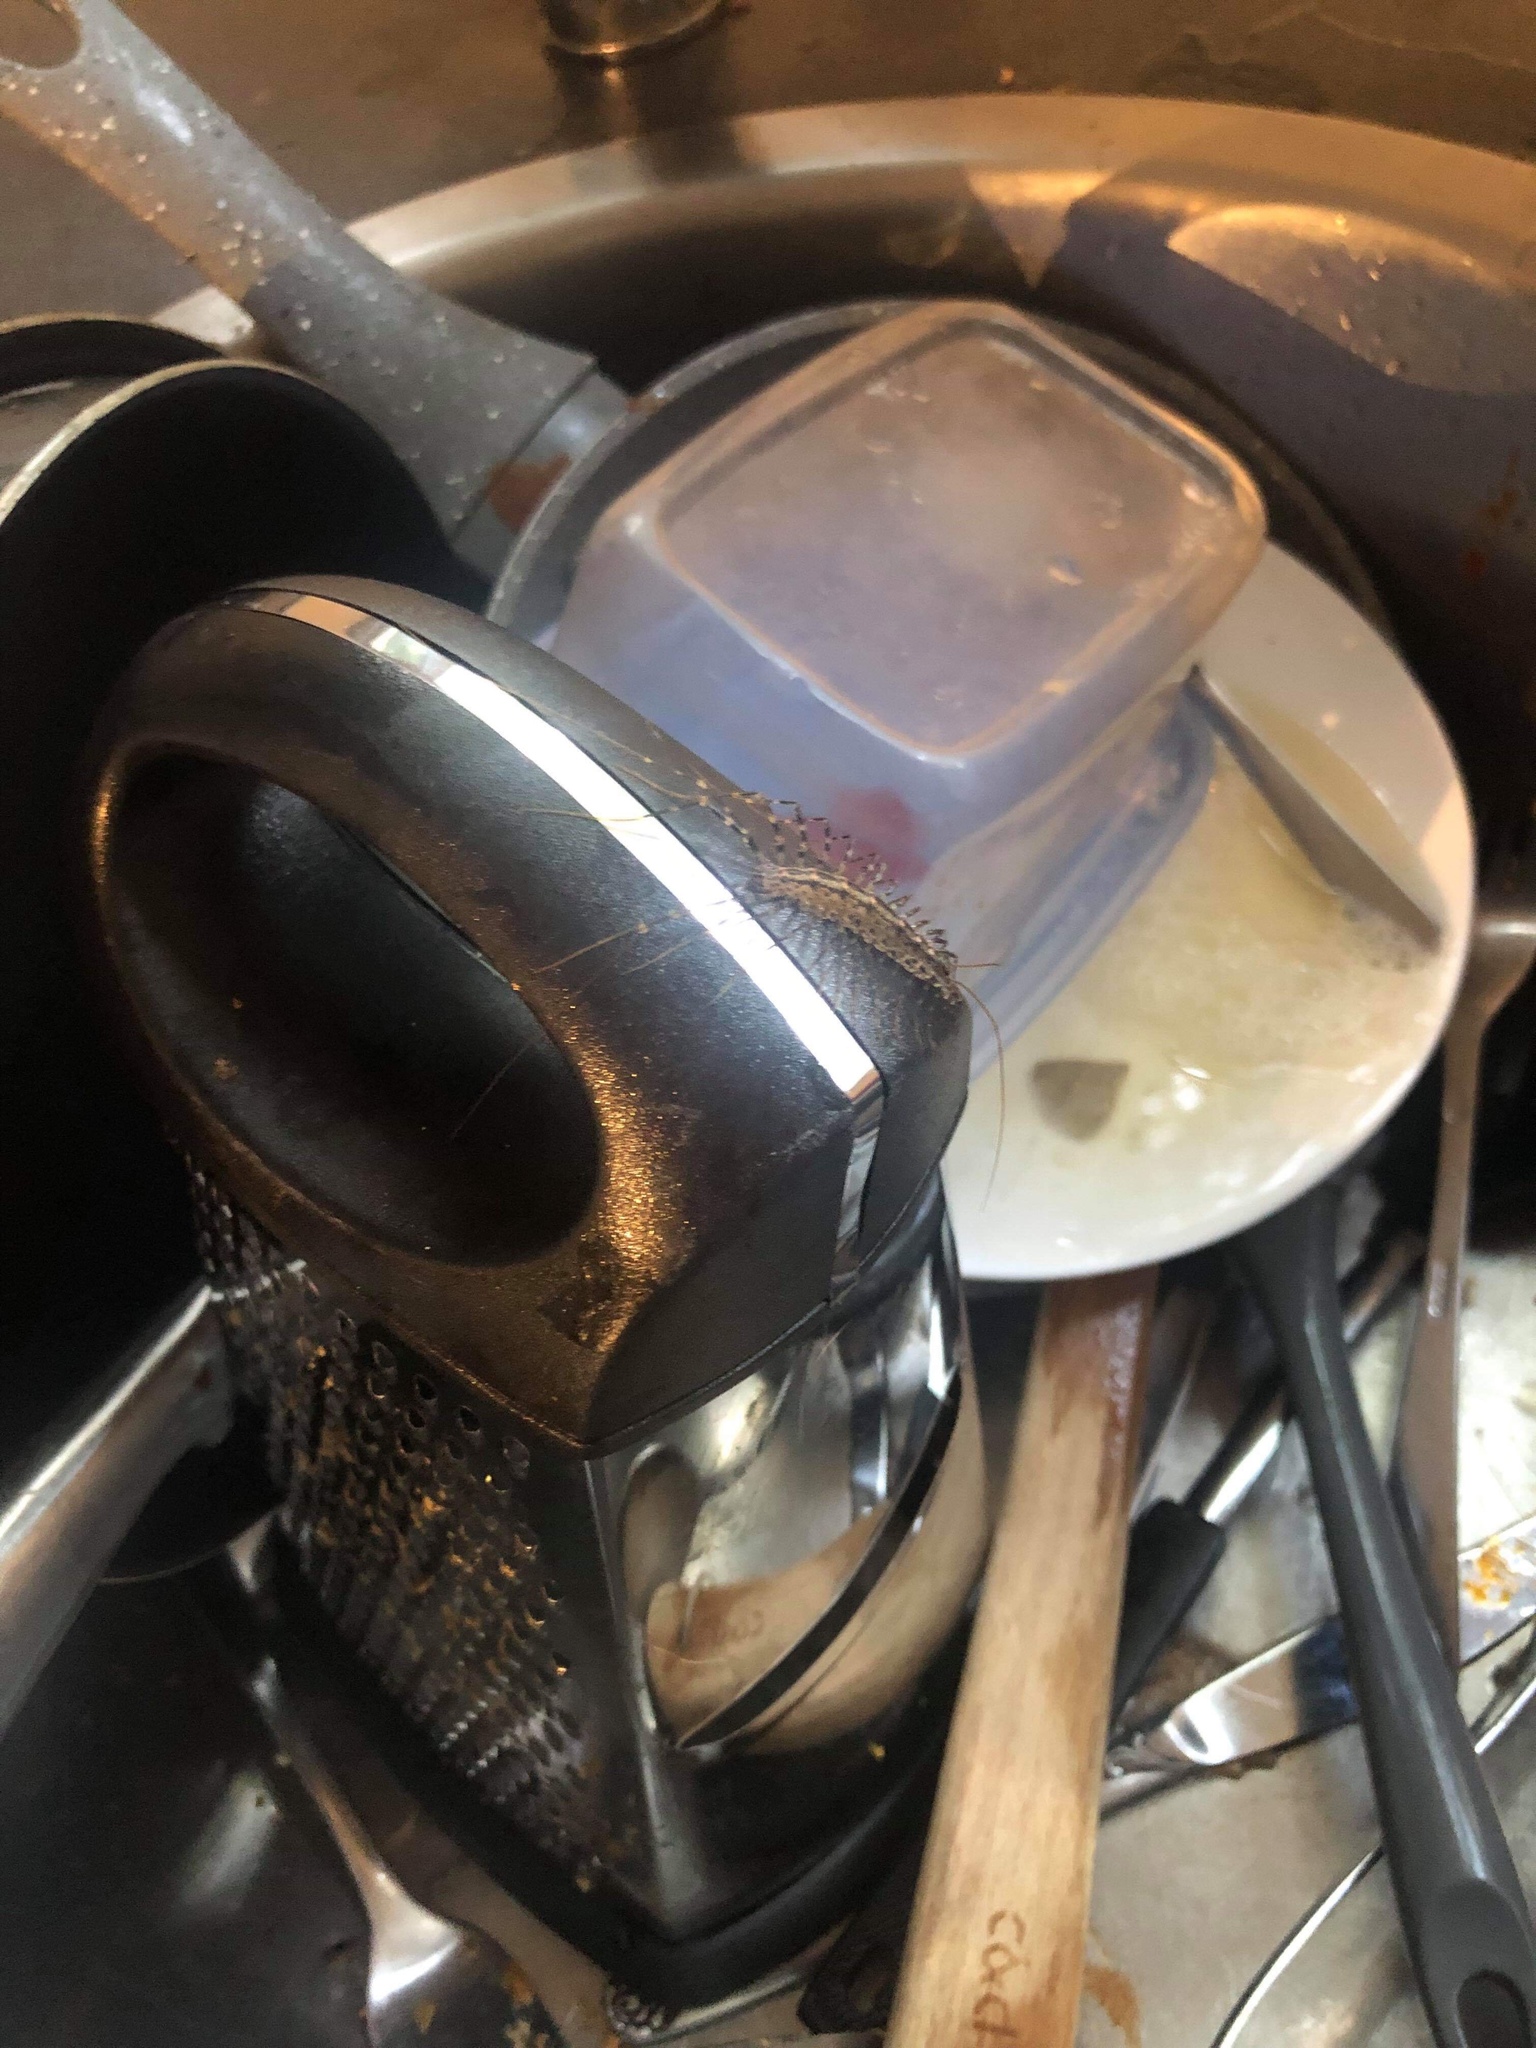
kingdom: Animalia
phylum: Arthropoda
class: Chilopoda
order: Scutigeromorpha
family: Scutigeridae
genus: Allothereua
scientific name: Allothereua maculata
